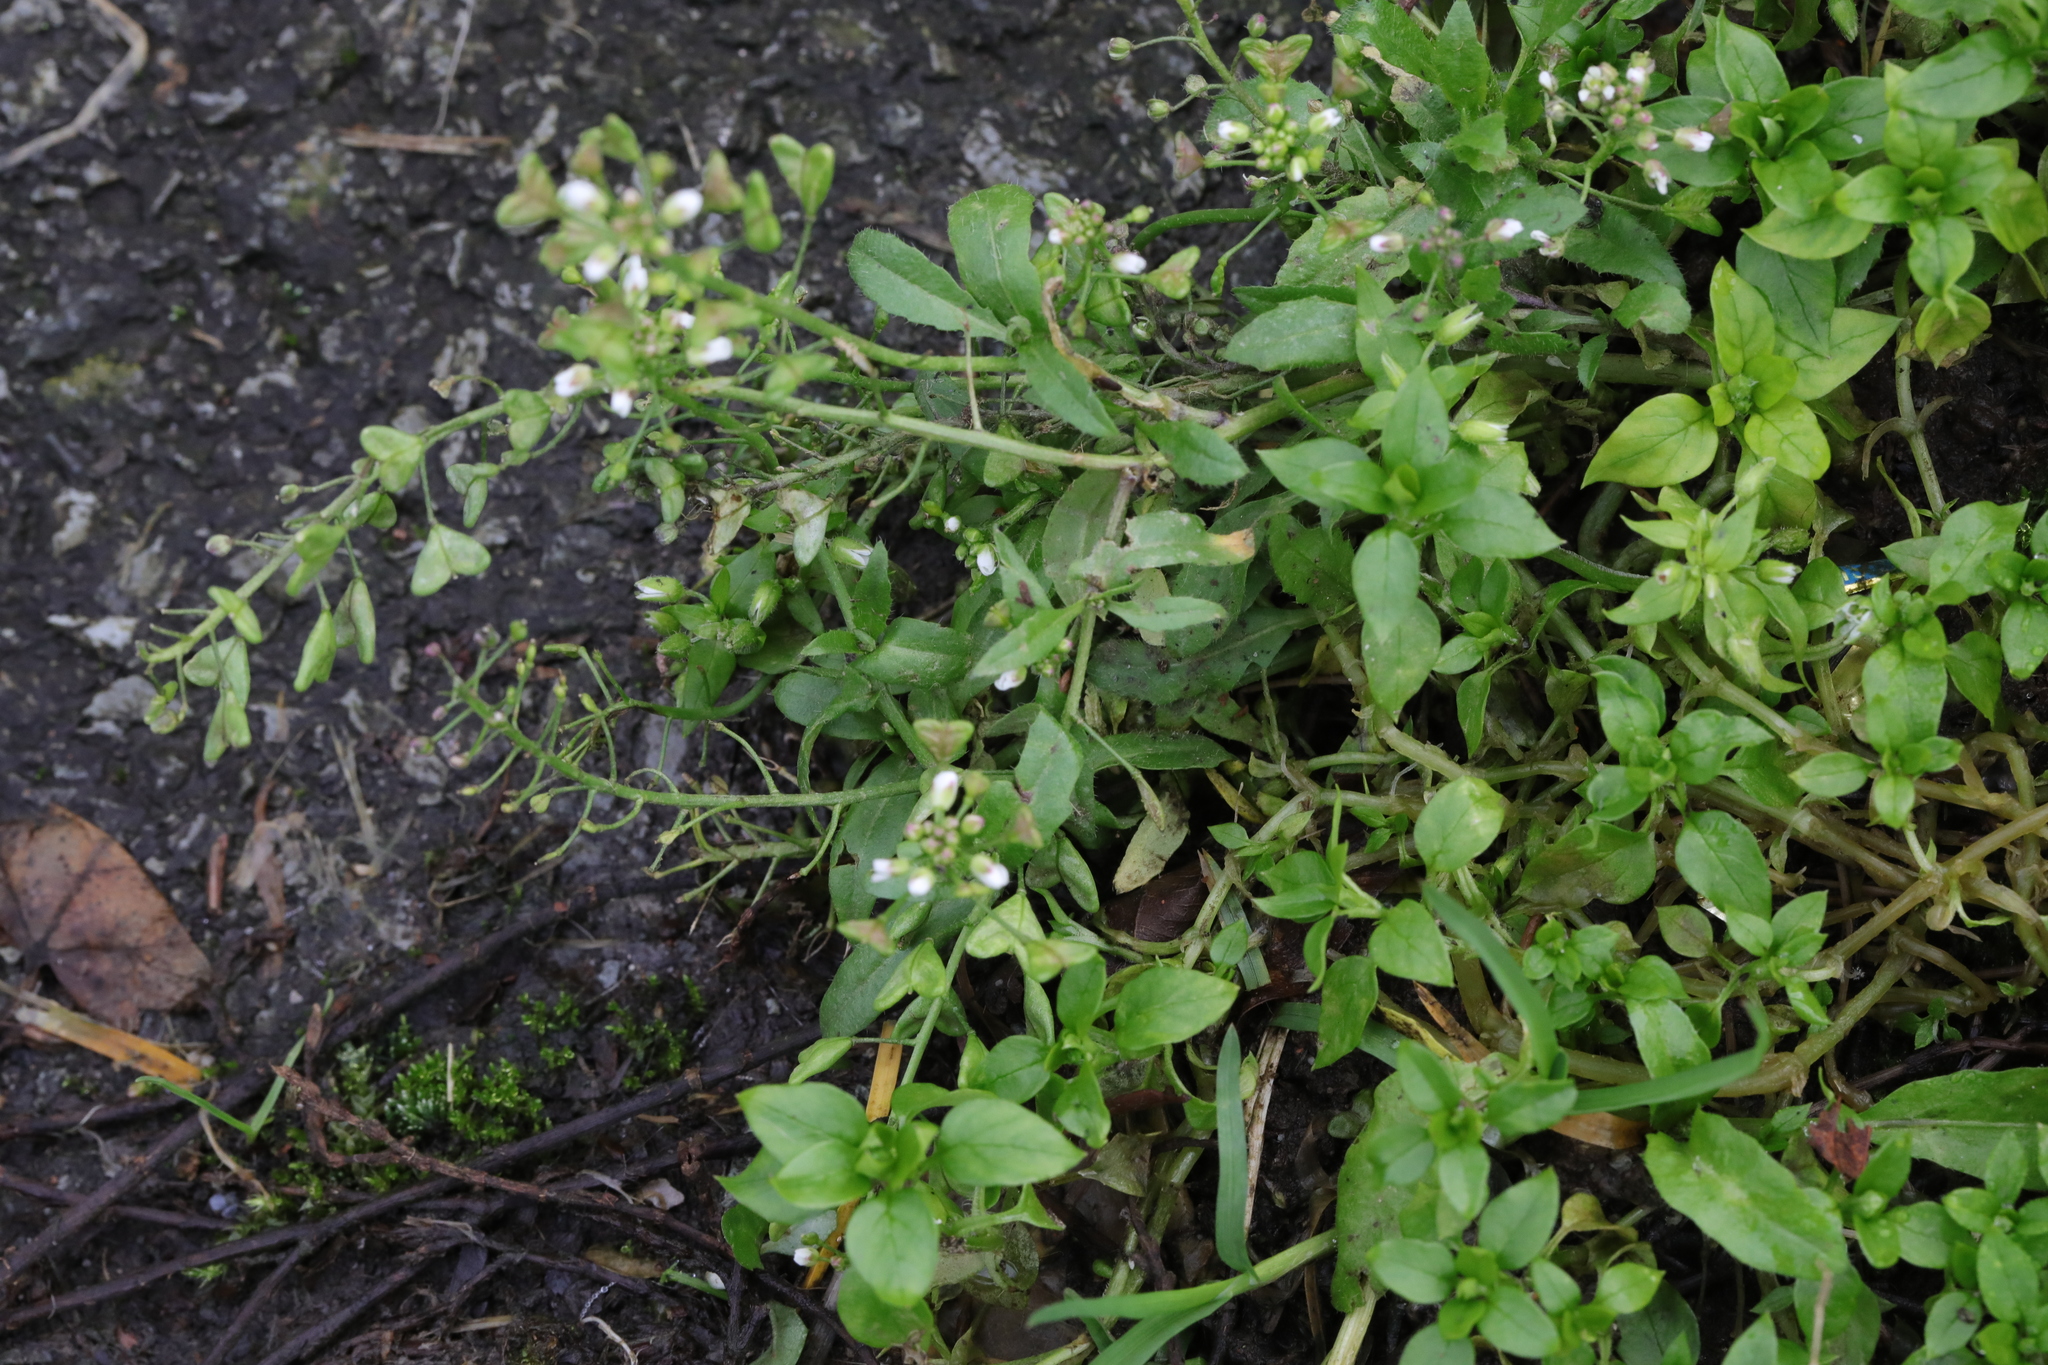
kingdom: Plantae
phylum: Tracheophyta
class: Magnoliopsida
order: Brassicales
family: Brassicaceae
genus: Capsella
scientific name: Capsella bursa-pastoris
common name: Shepherd's purse
